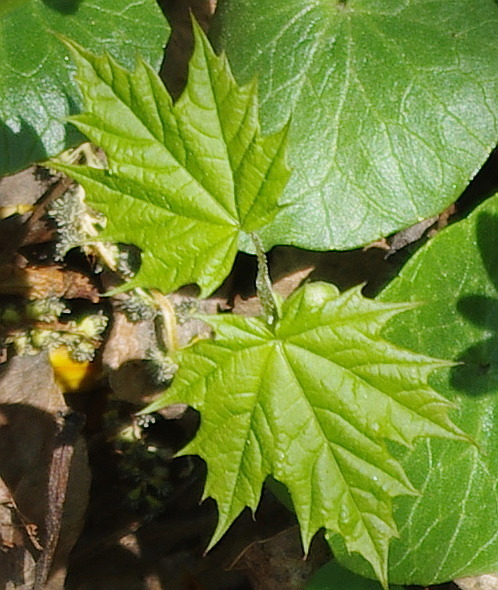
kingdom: Plantae
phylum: Tracheophyta
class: Magnoliopsida
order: Sapindales
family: Sapindaceae
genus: Acer
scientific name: Acer platanoides
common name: Norway maple
